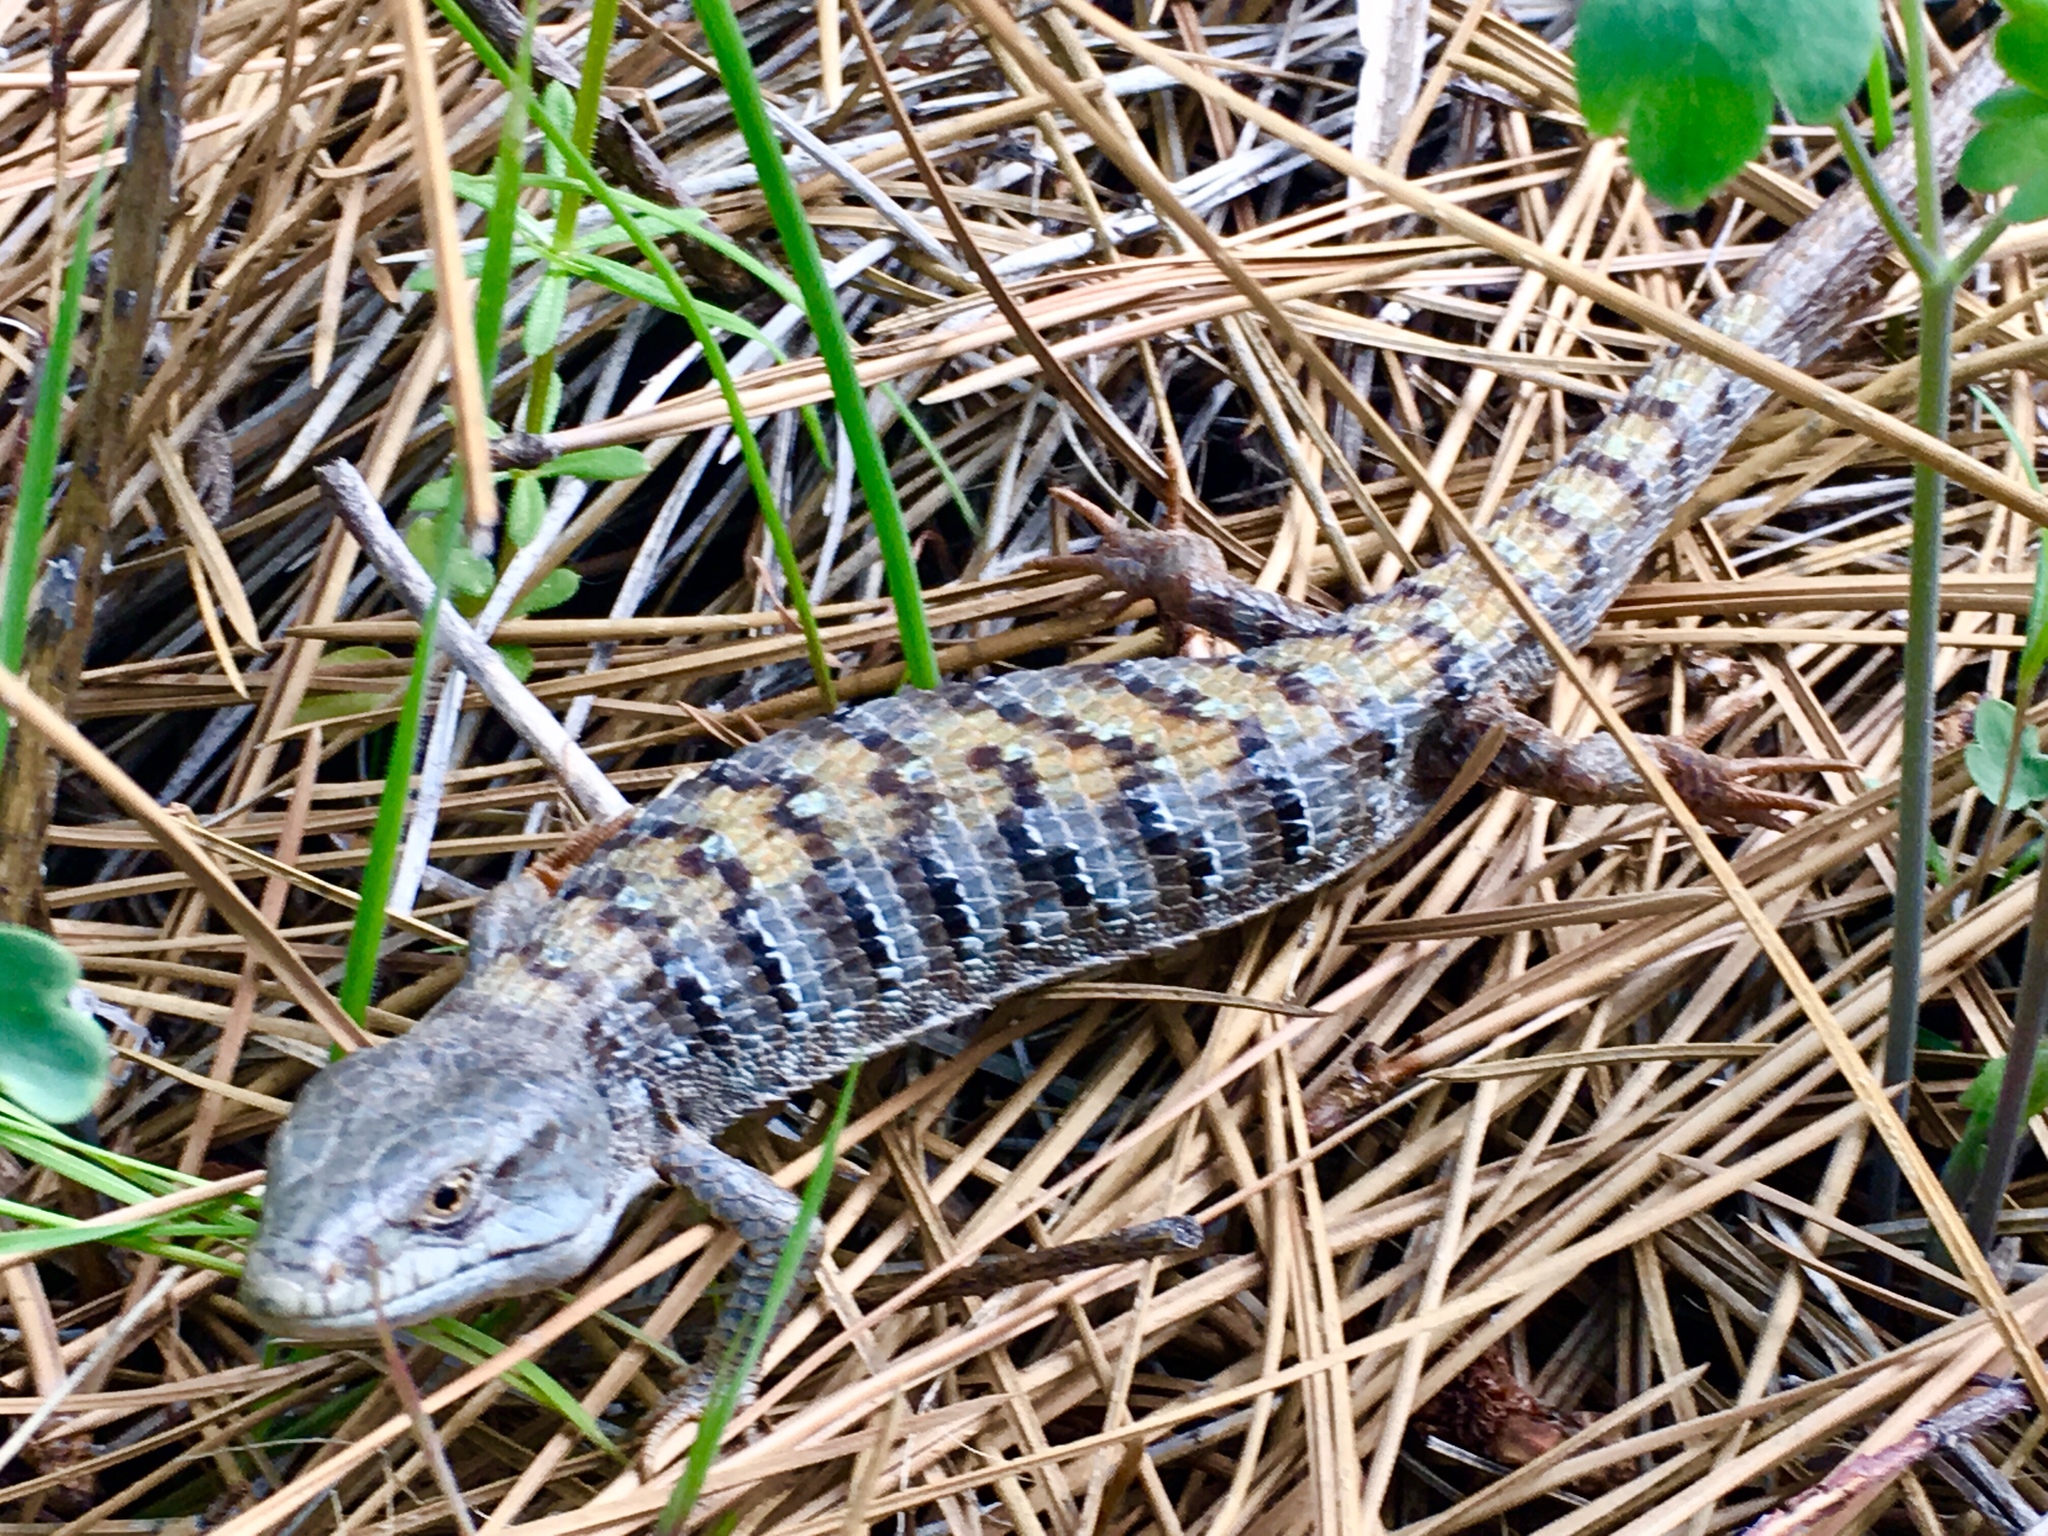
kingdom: Animalia
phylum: Chordata
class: Squamata
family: Anguidae
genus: Elgaria
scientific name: Elgaria multicarinata
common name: Southern alligator lizard
